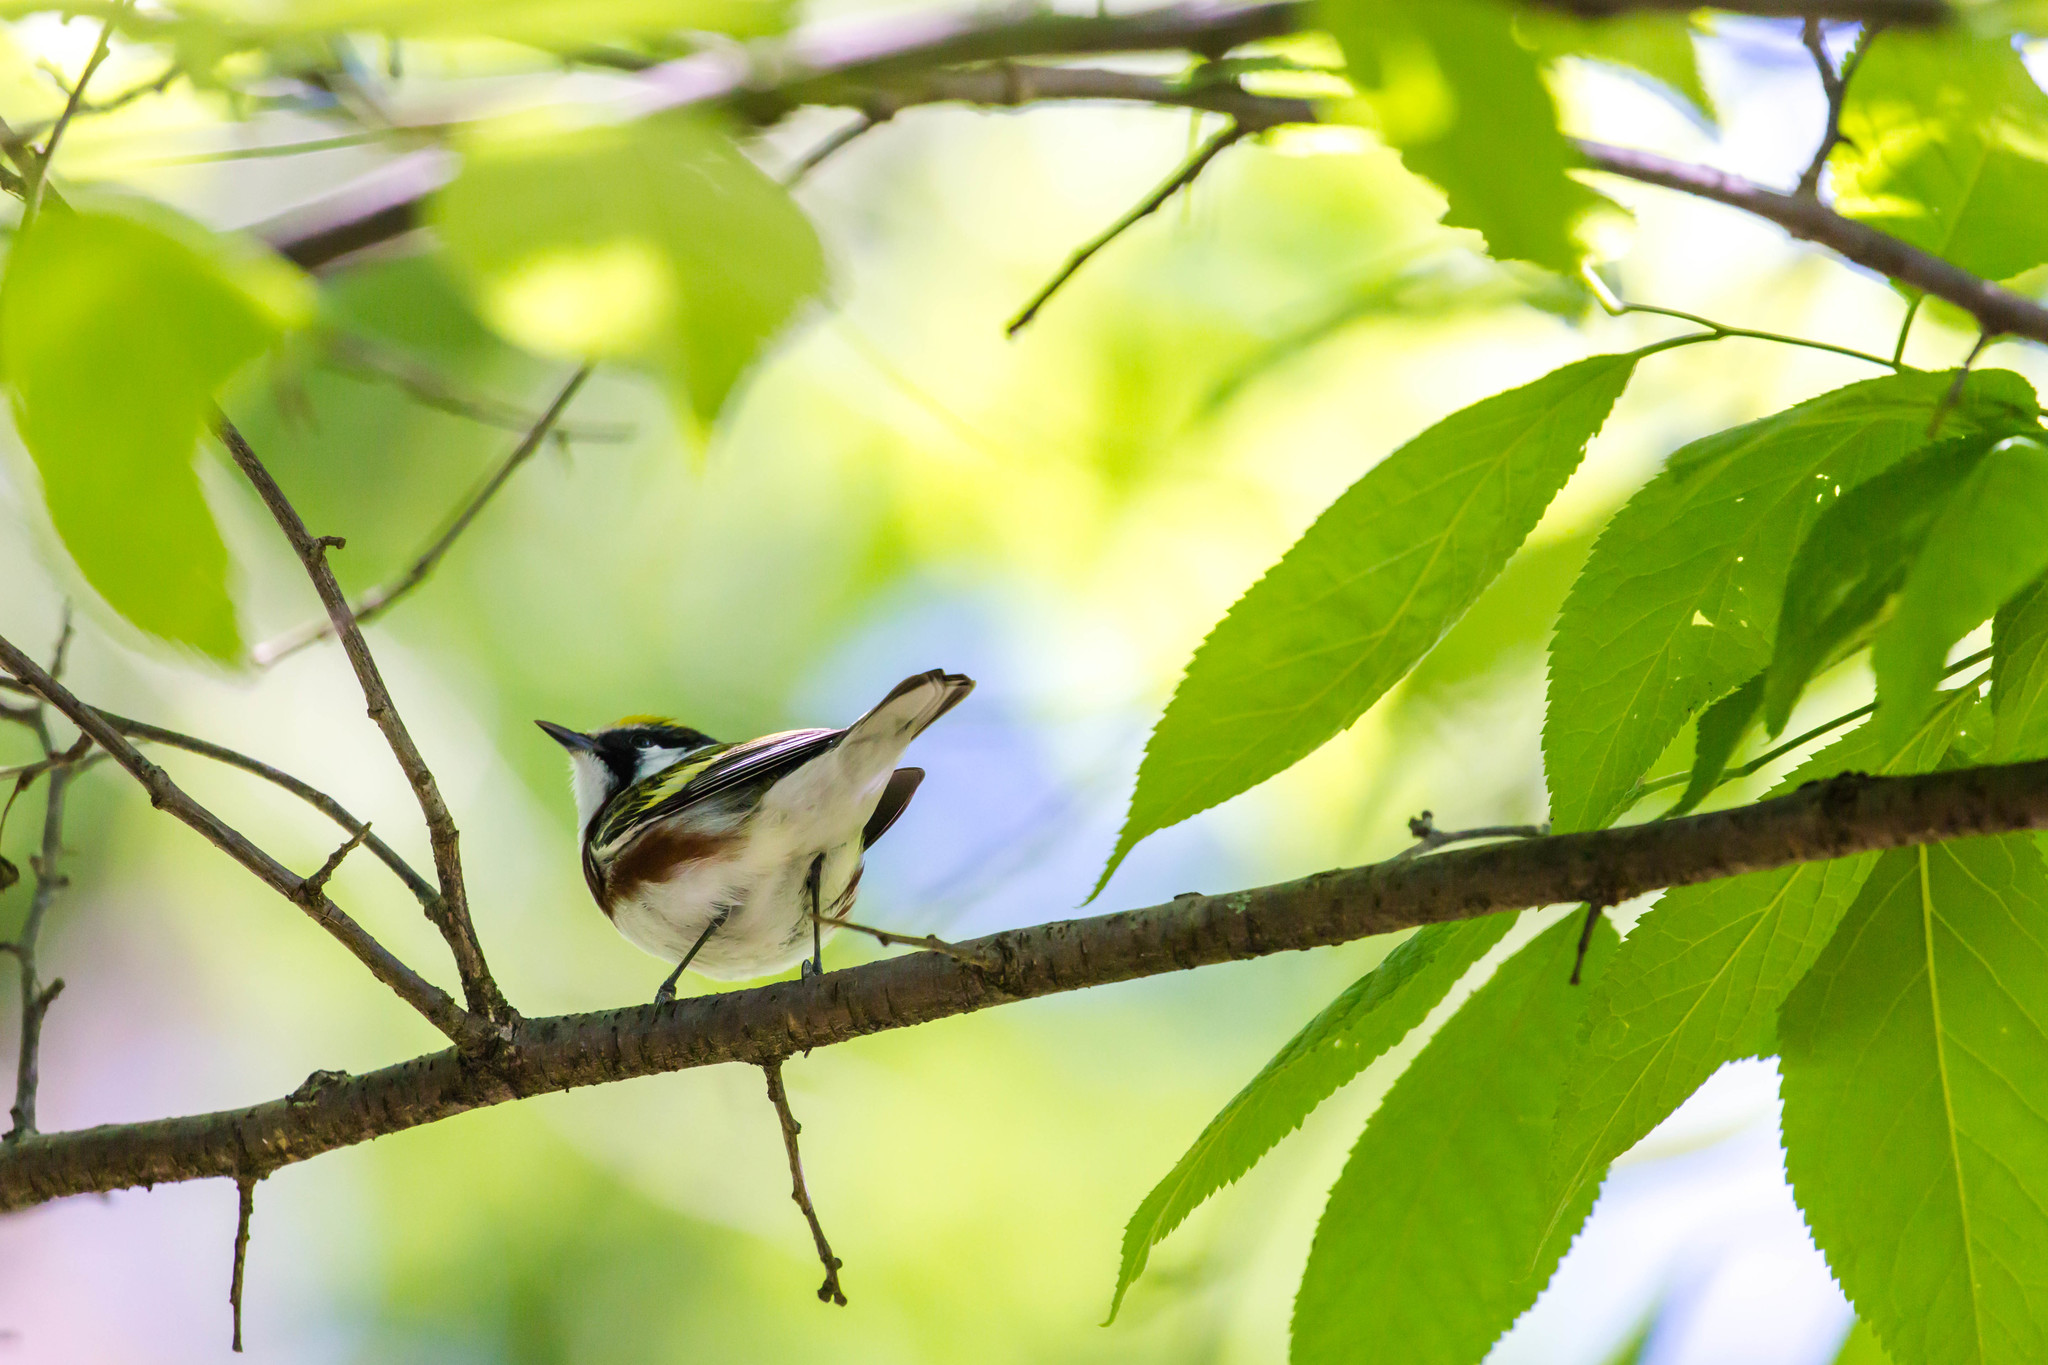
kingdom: Animalia
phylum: Chordata
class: Aves
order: Passeriformes
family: Parulidae
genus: Setophaga
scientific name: Setophaga pensylvanica
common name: Chestnut-sided warbler
